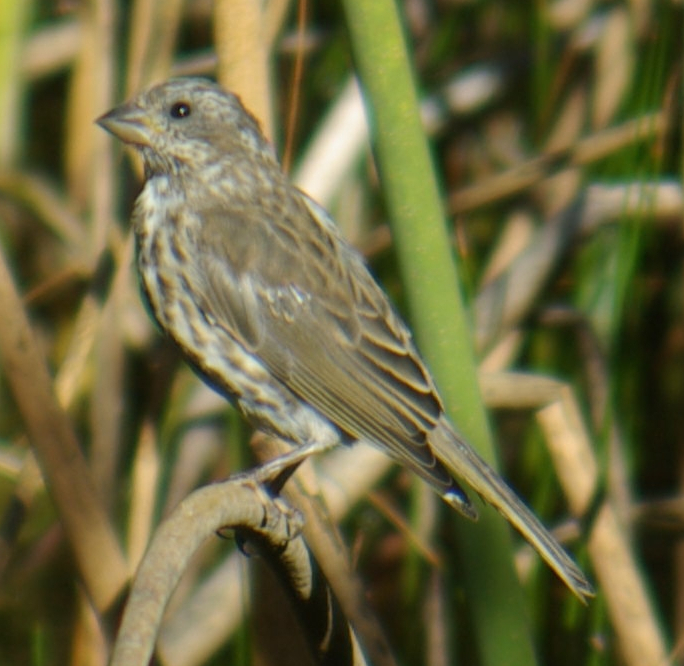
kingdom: Animalia
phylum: Chordata
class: Aves
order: Passeriformes
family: Fringillidae
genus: Haemorhous
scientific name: Haemorhous purpureus
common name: Purple finch
